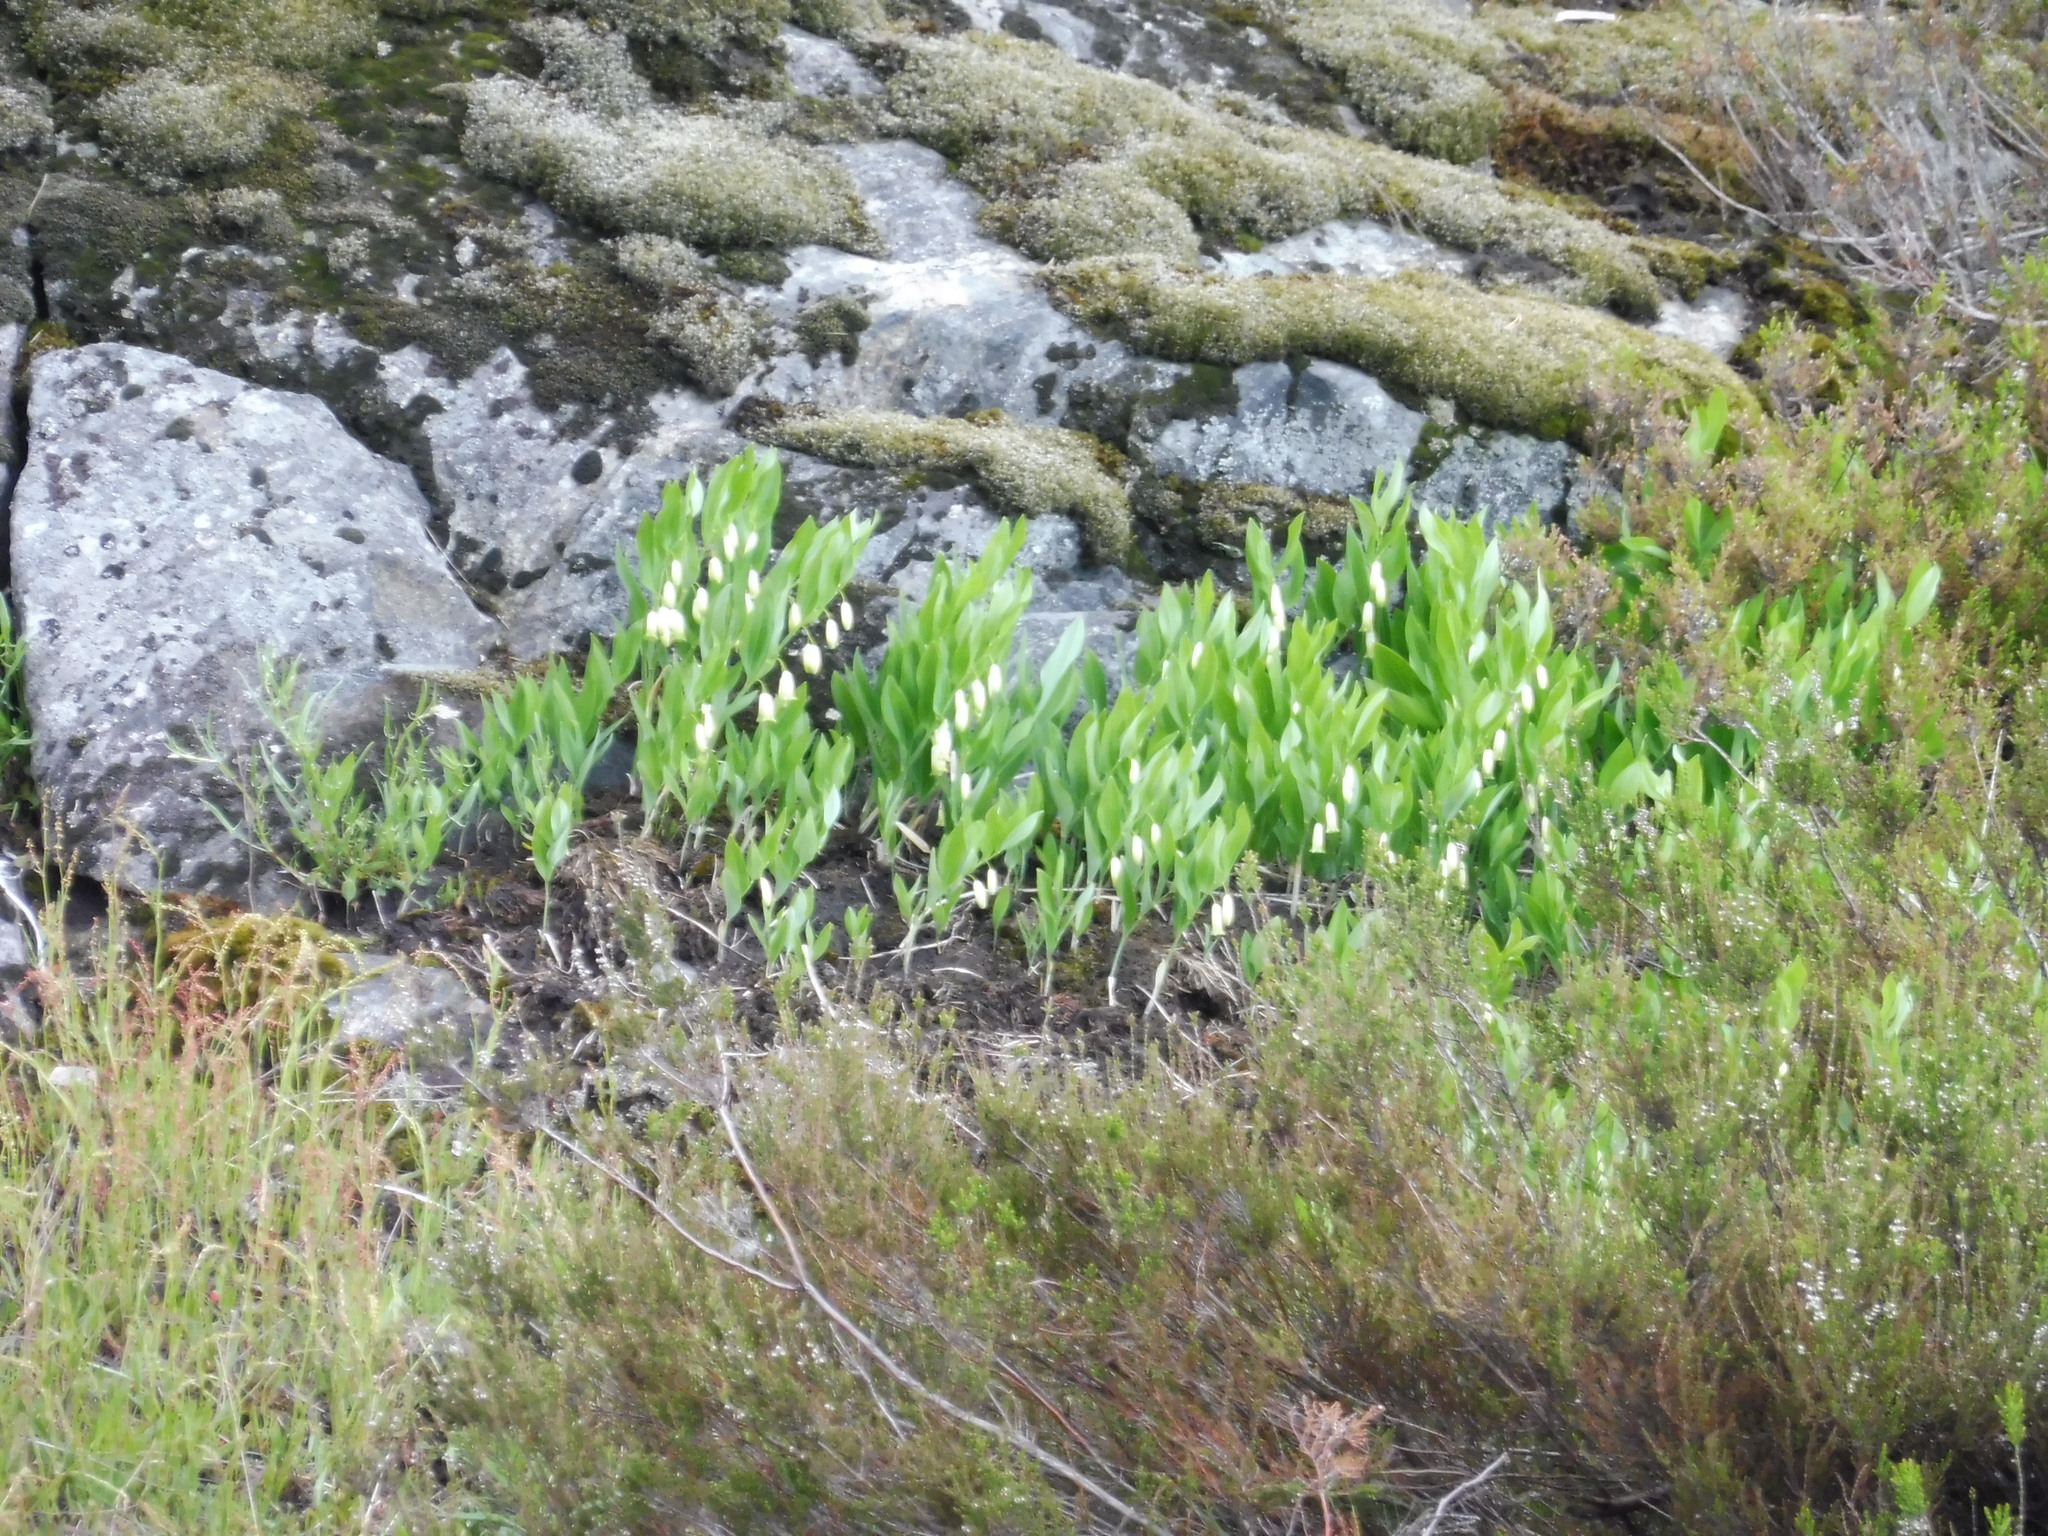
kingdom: Plantae
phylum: Tracheophyta
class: Liliopsida
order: Asparagales
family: Asparagaceae
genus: Polygonatum
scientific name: Polygonatum odoratum
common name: Angular solomon's-seal
